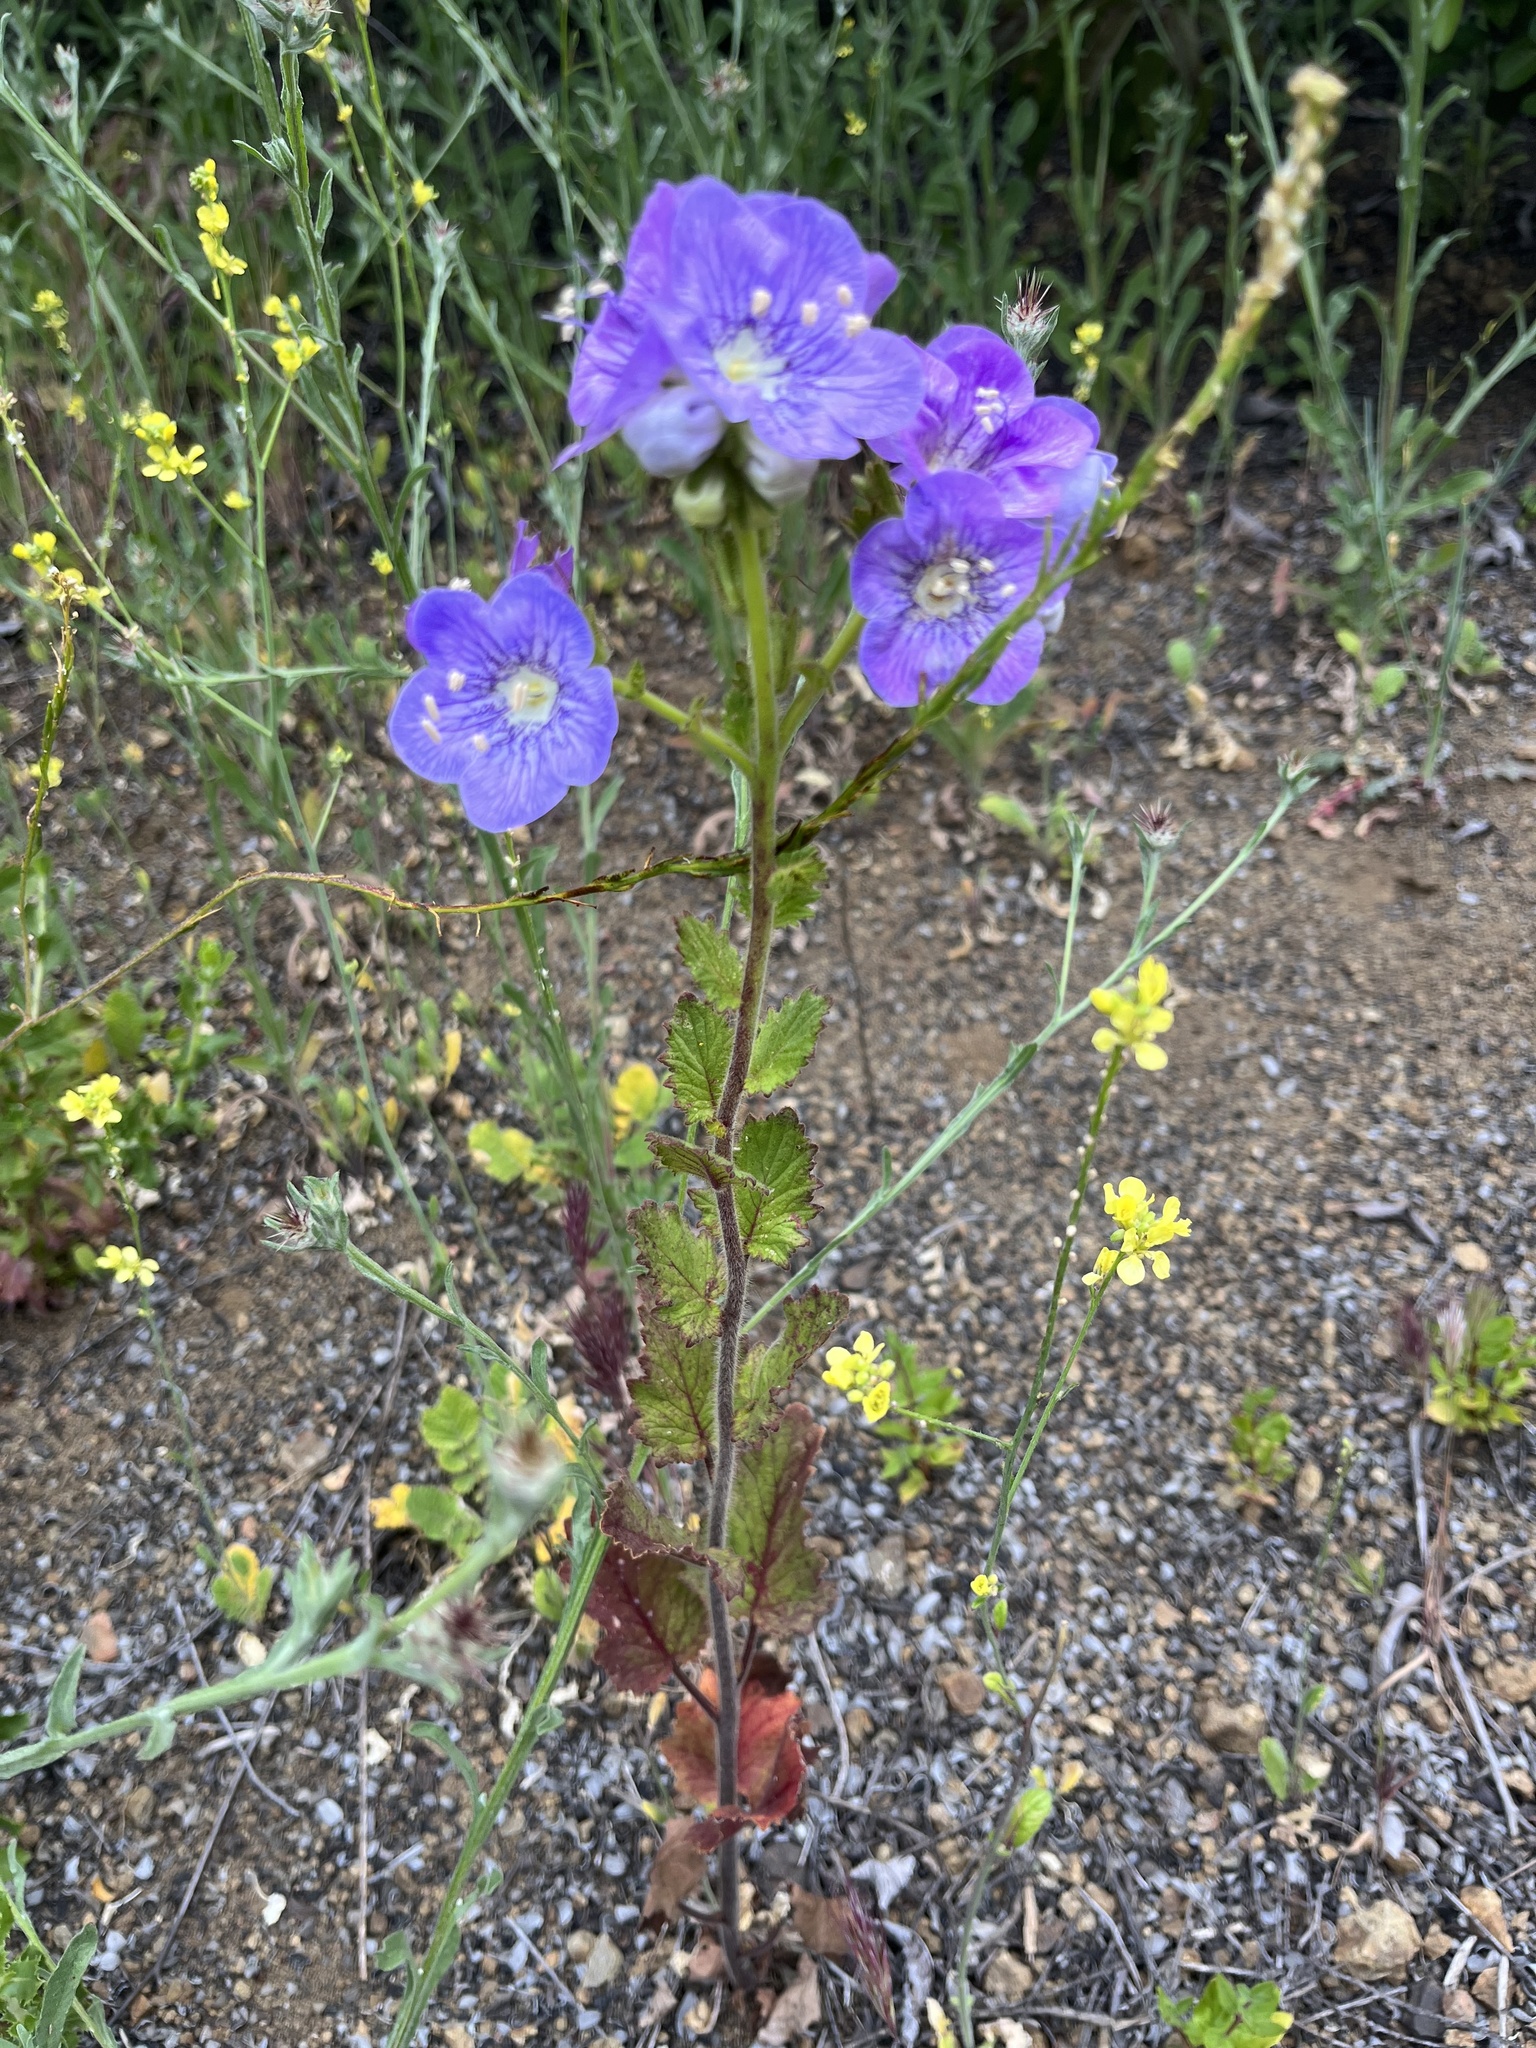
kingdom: Plantae
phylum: Tracheophyta
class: Magnoliopsida
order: Boraginales
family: Hydrophyllaceae
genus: Phacelia
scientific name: Phacelia grandiflora
